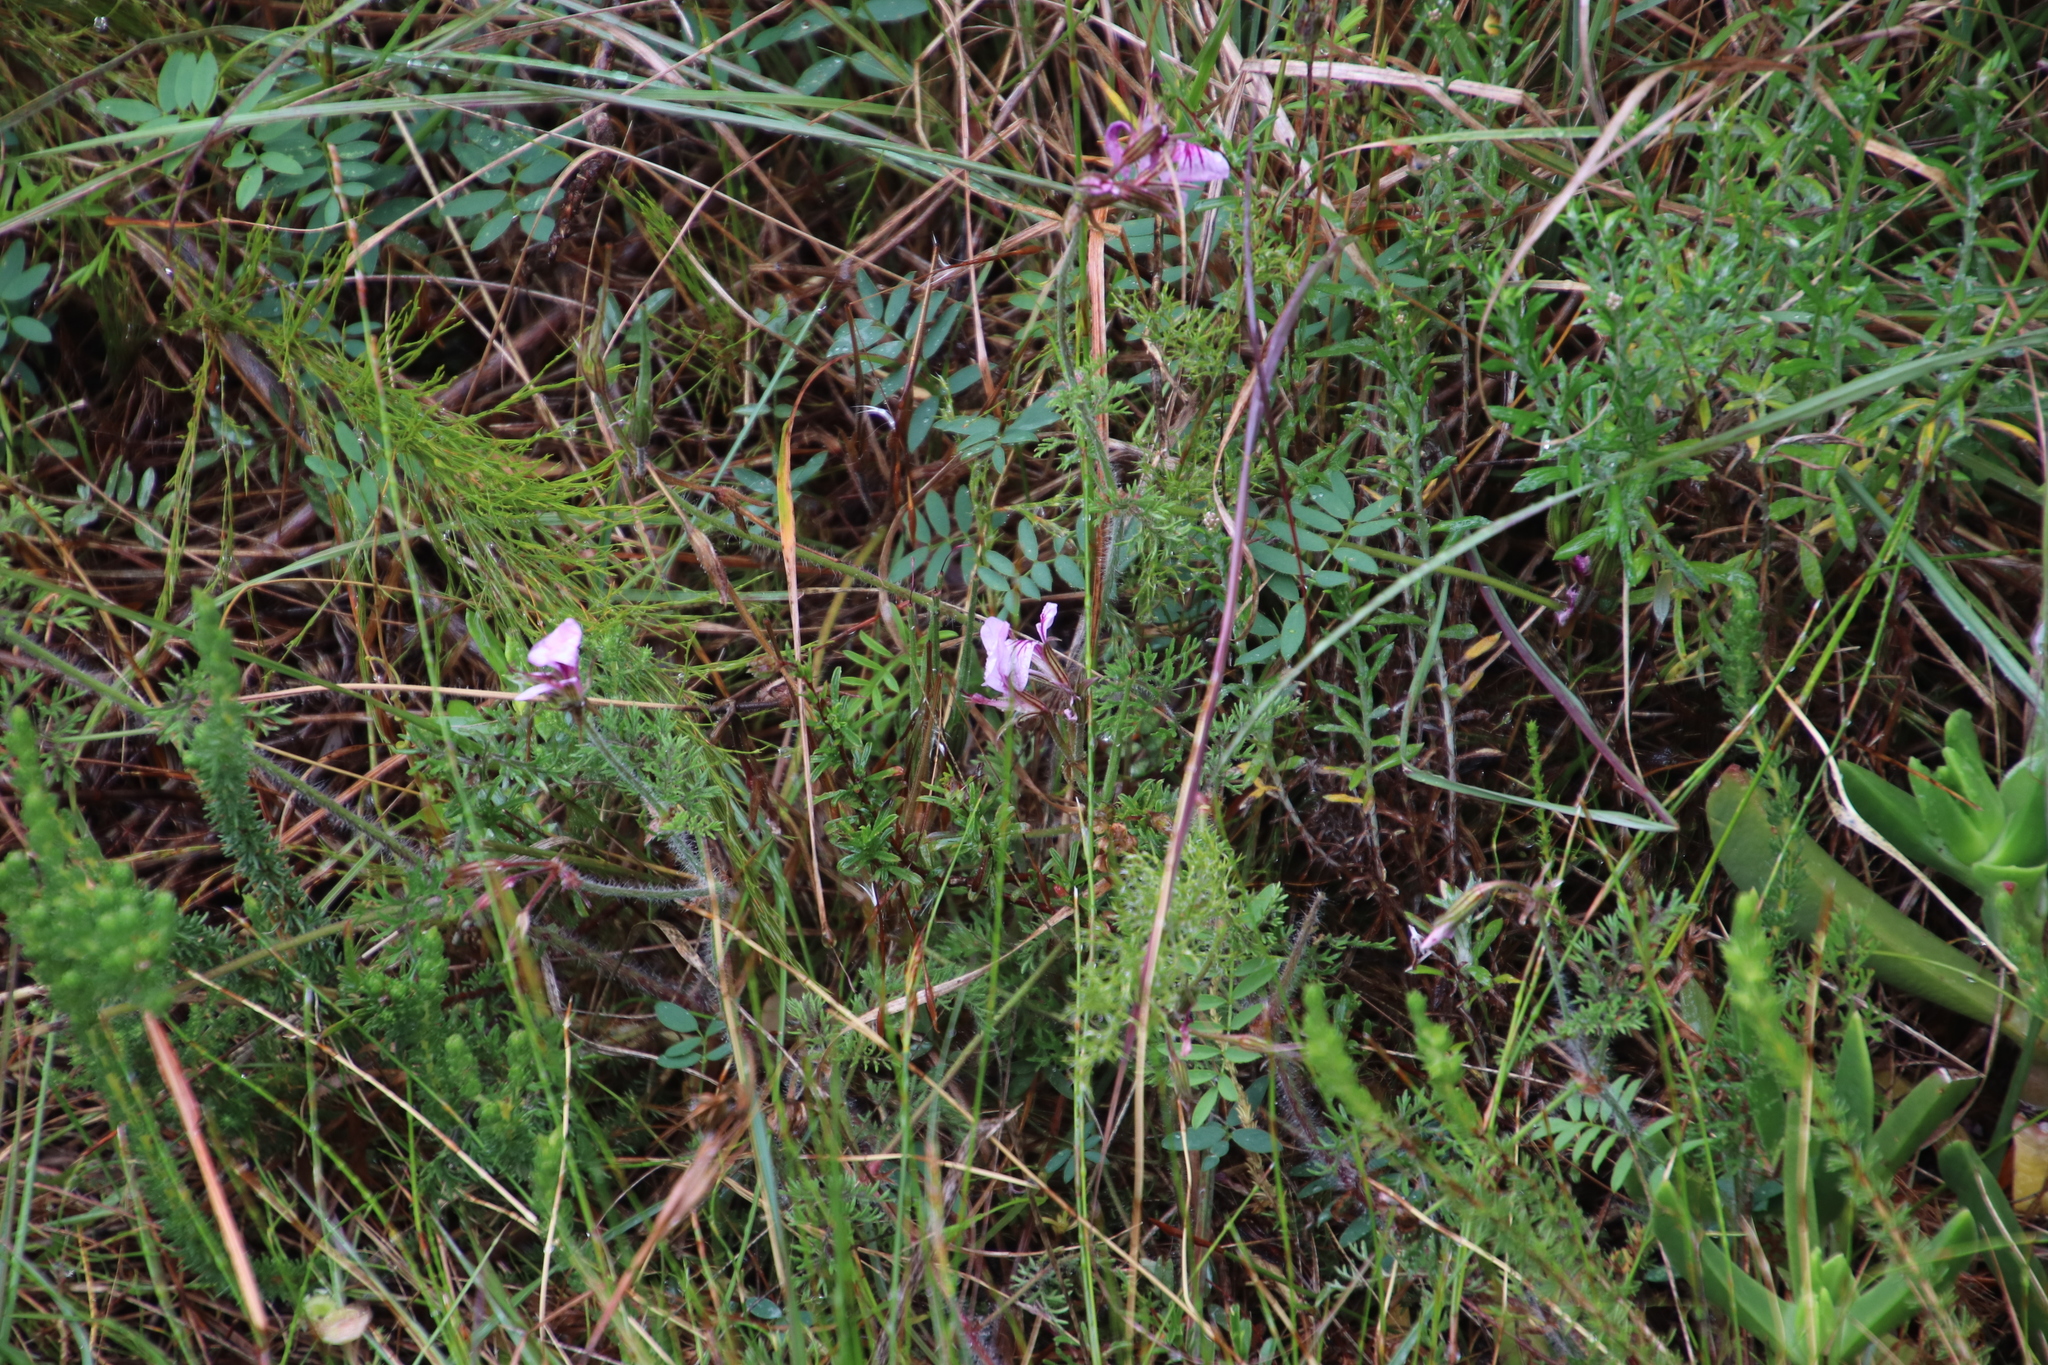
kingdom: Plantae
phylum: Tracheophyta
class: Magnoliopsida
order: Geraniales
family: Geraniaceae
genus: Pelargonium
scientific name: Pelargonium myrrhifolium
